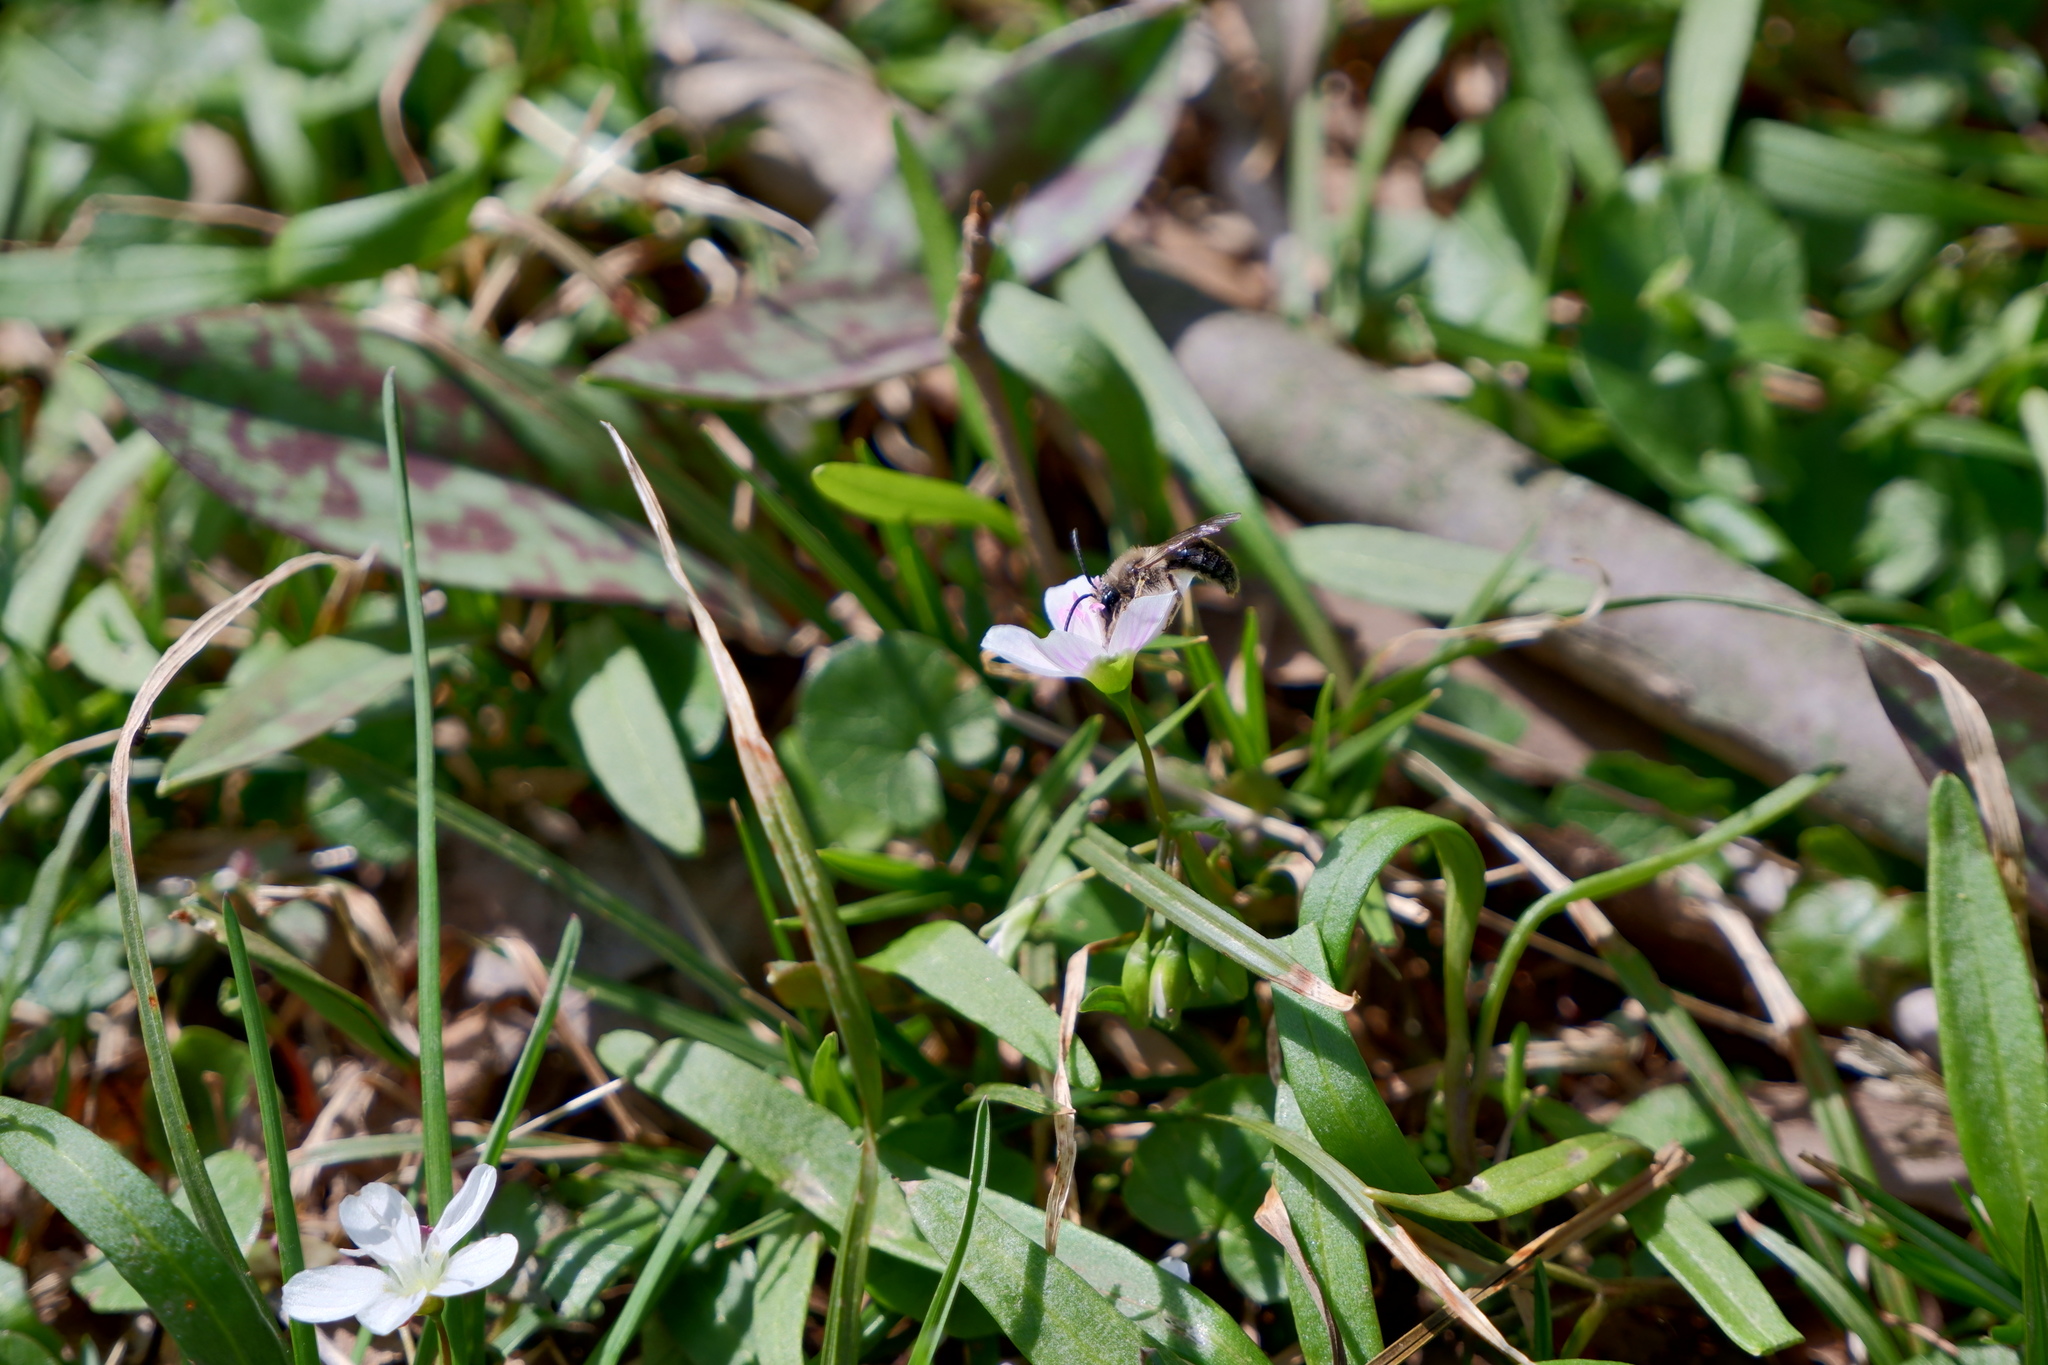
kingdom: Animalia
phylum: Arthropoda
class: Insecta
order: Hymenoptera
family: Andrenidae
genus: Andrena
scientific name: Andrena erigeniae
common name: Spring beauty miner
